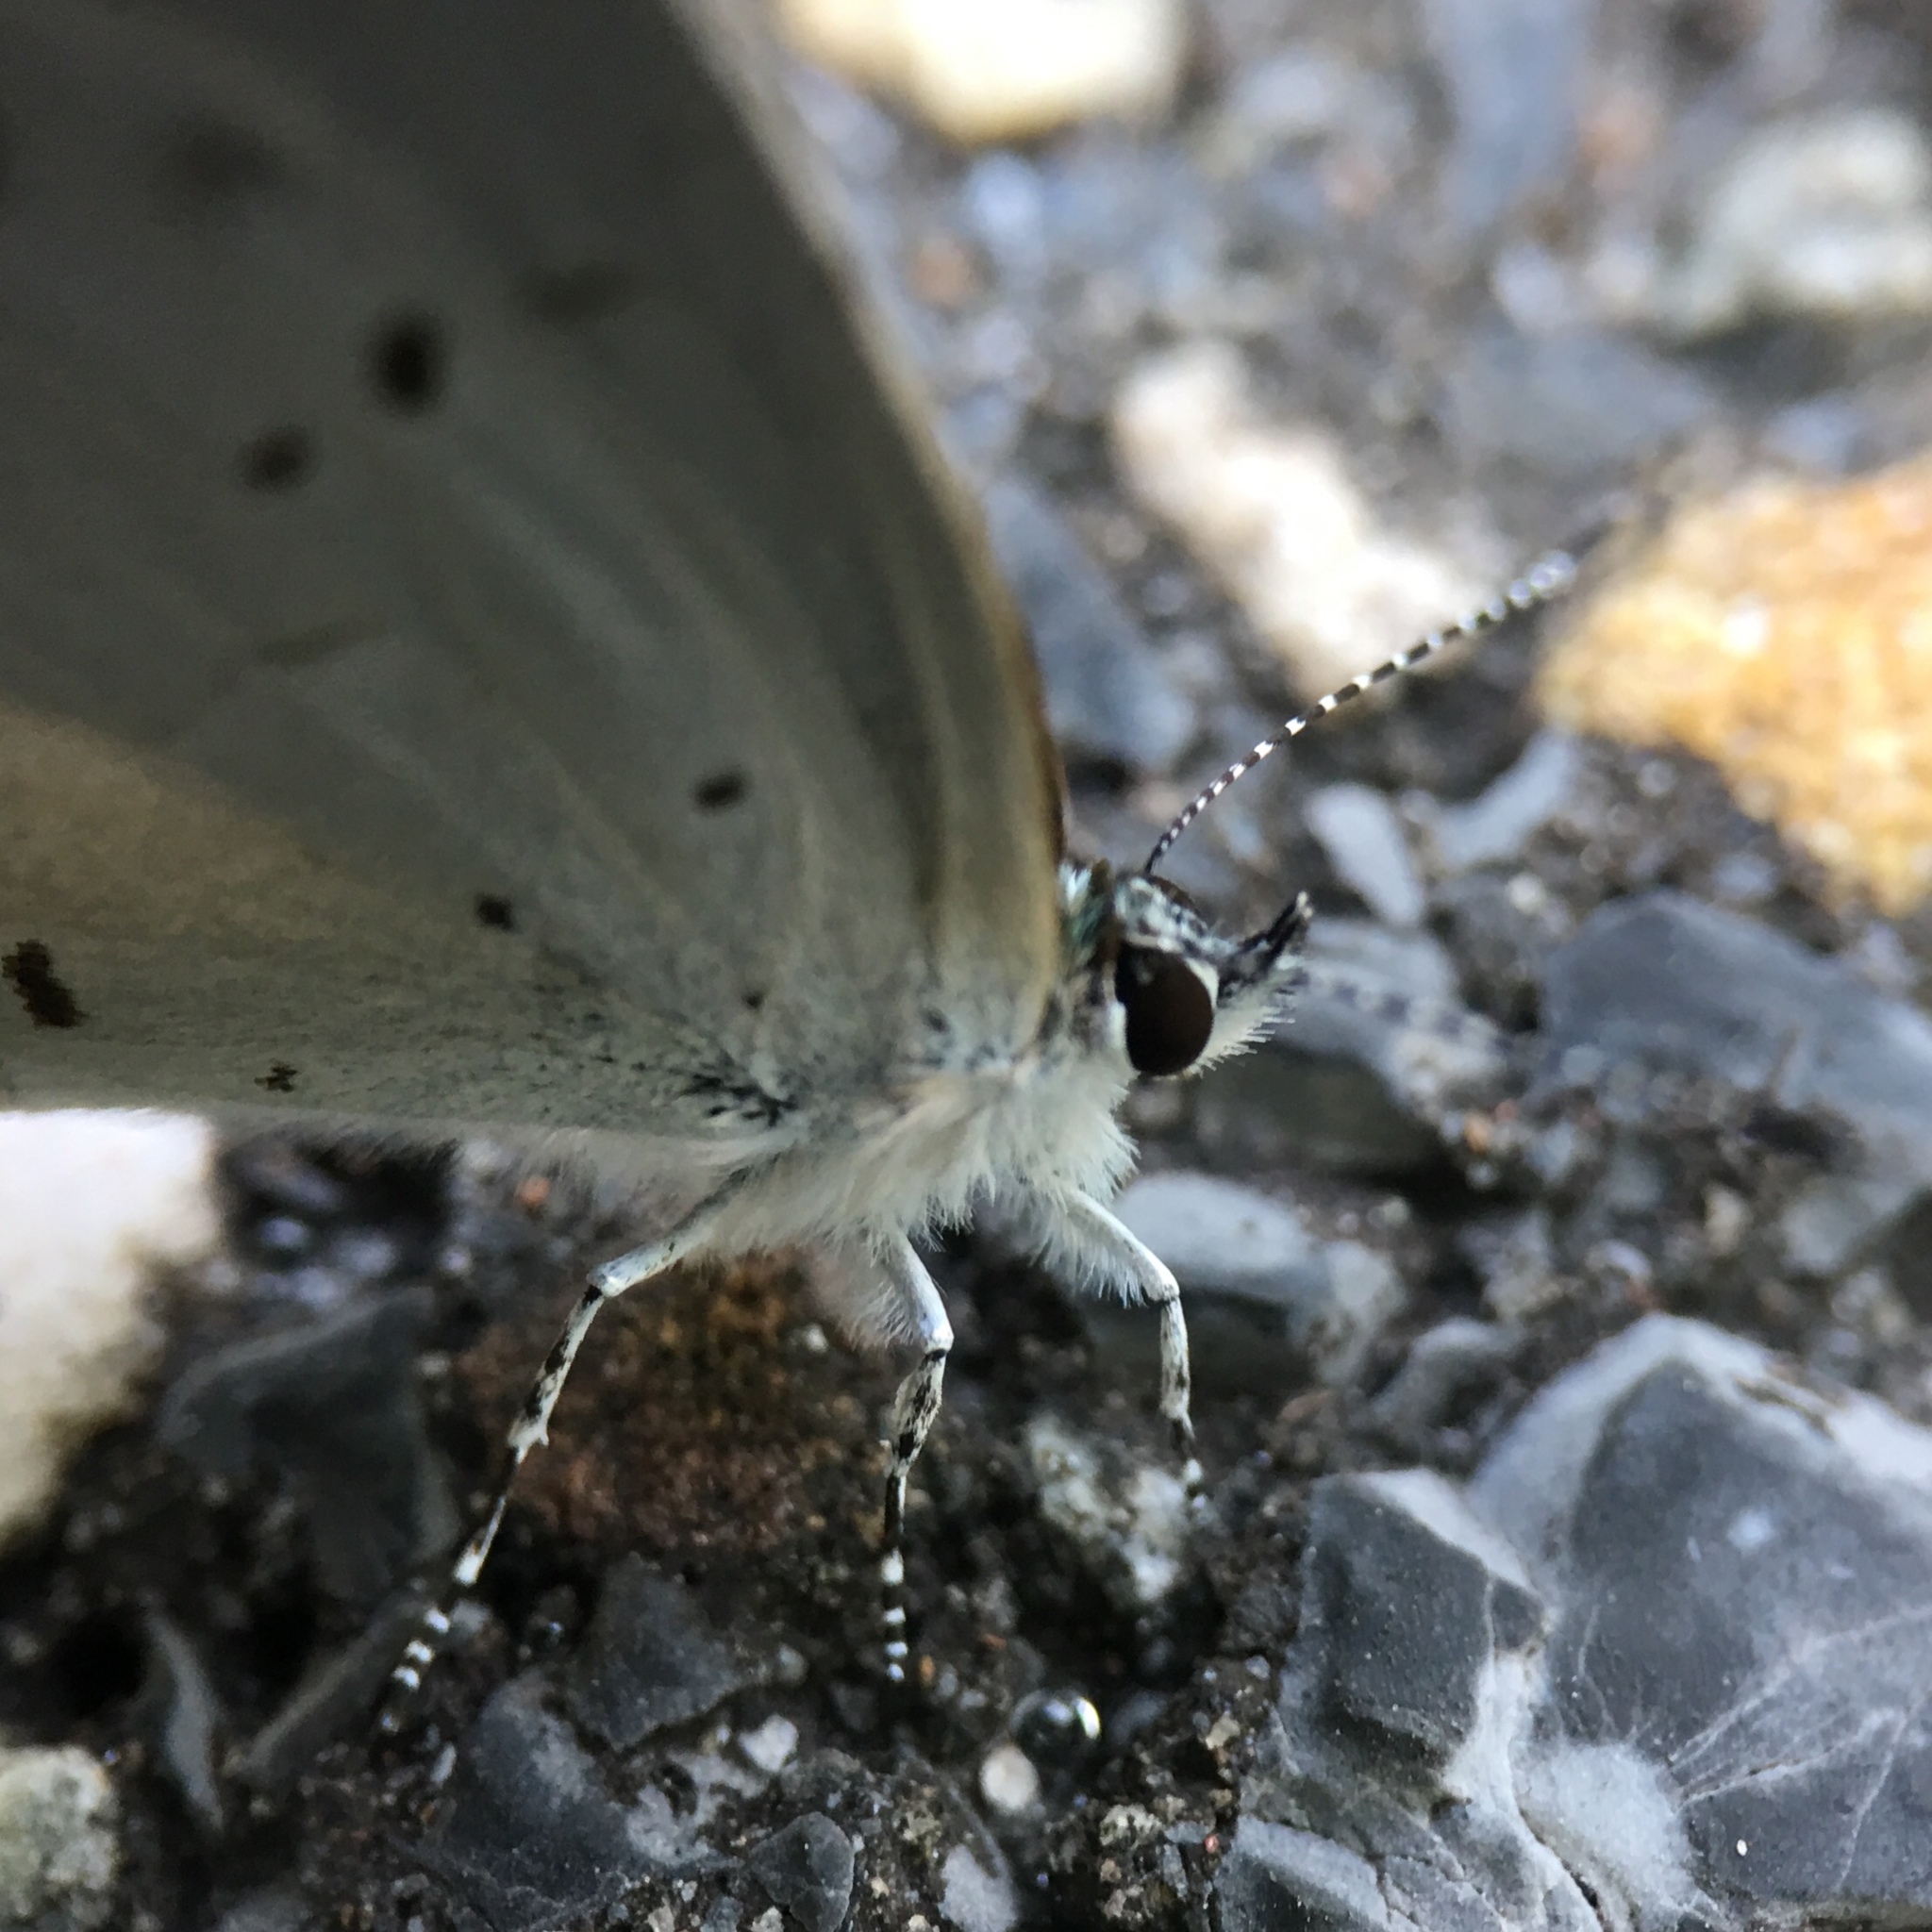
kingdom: Animalia
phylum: Arthropoda
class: Insecta
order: Lepidoptera
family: Lycaenidae
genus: Cyaniris
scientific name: Cyaniris neglecta
